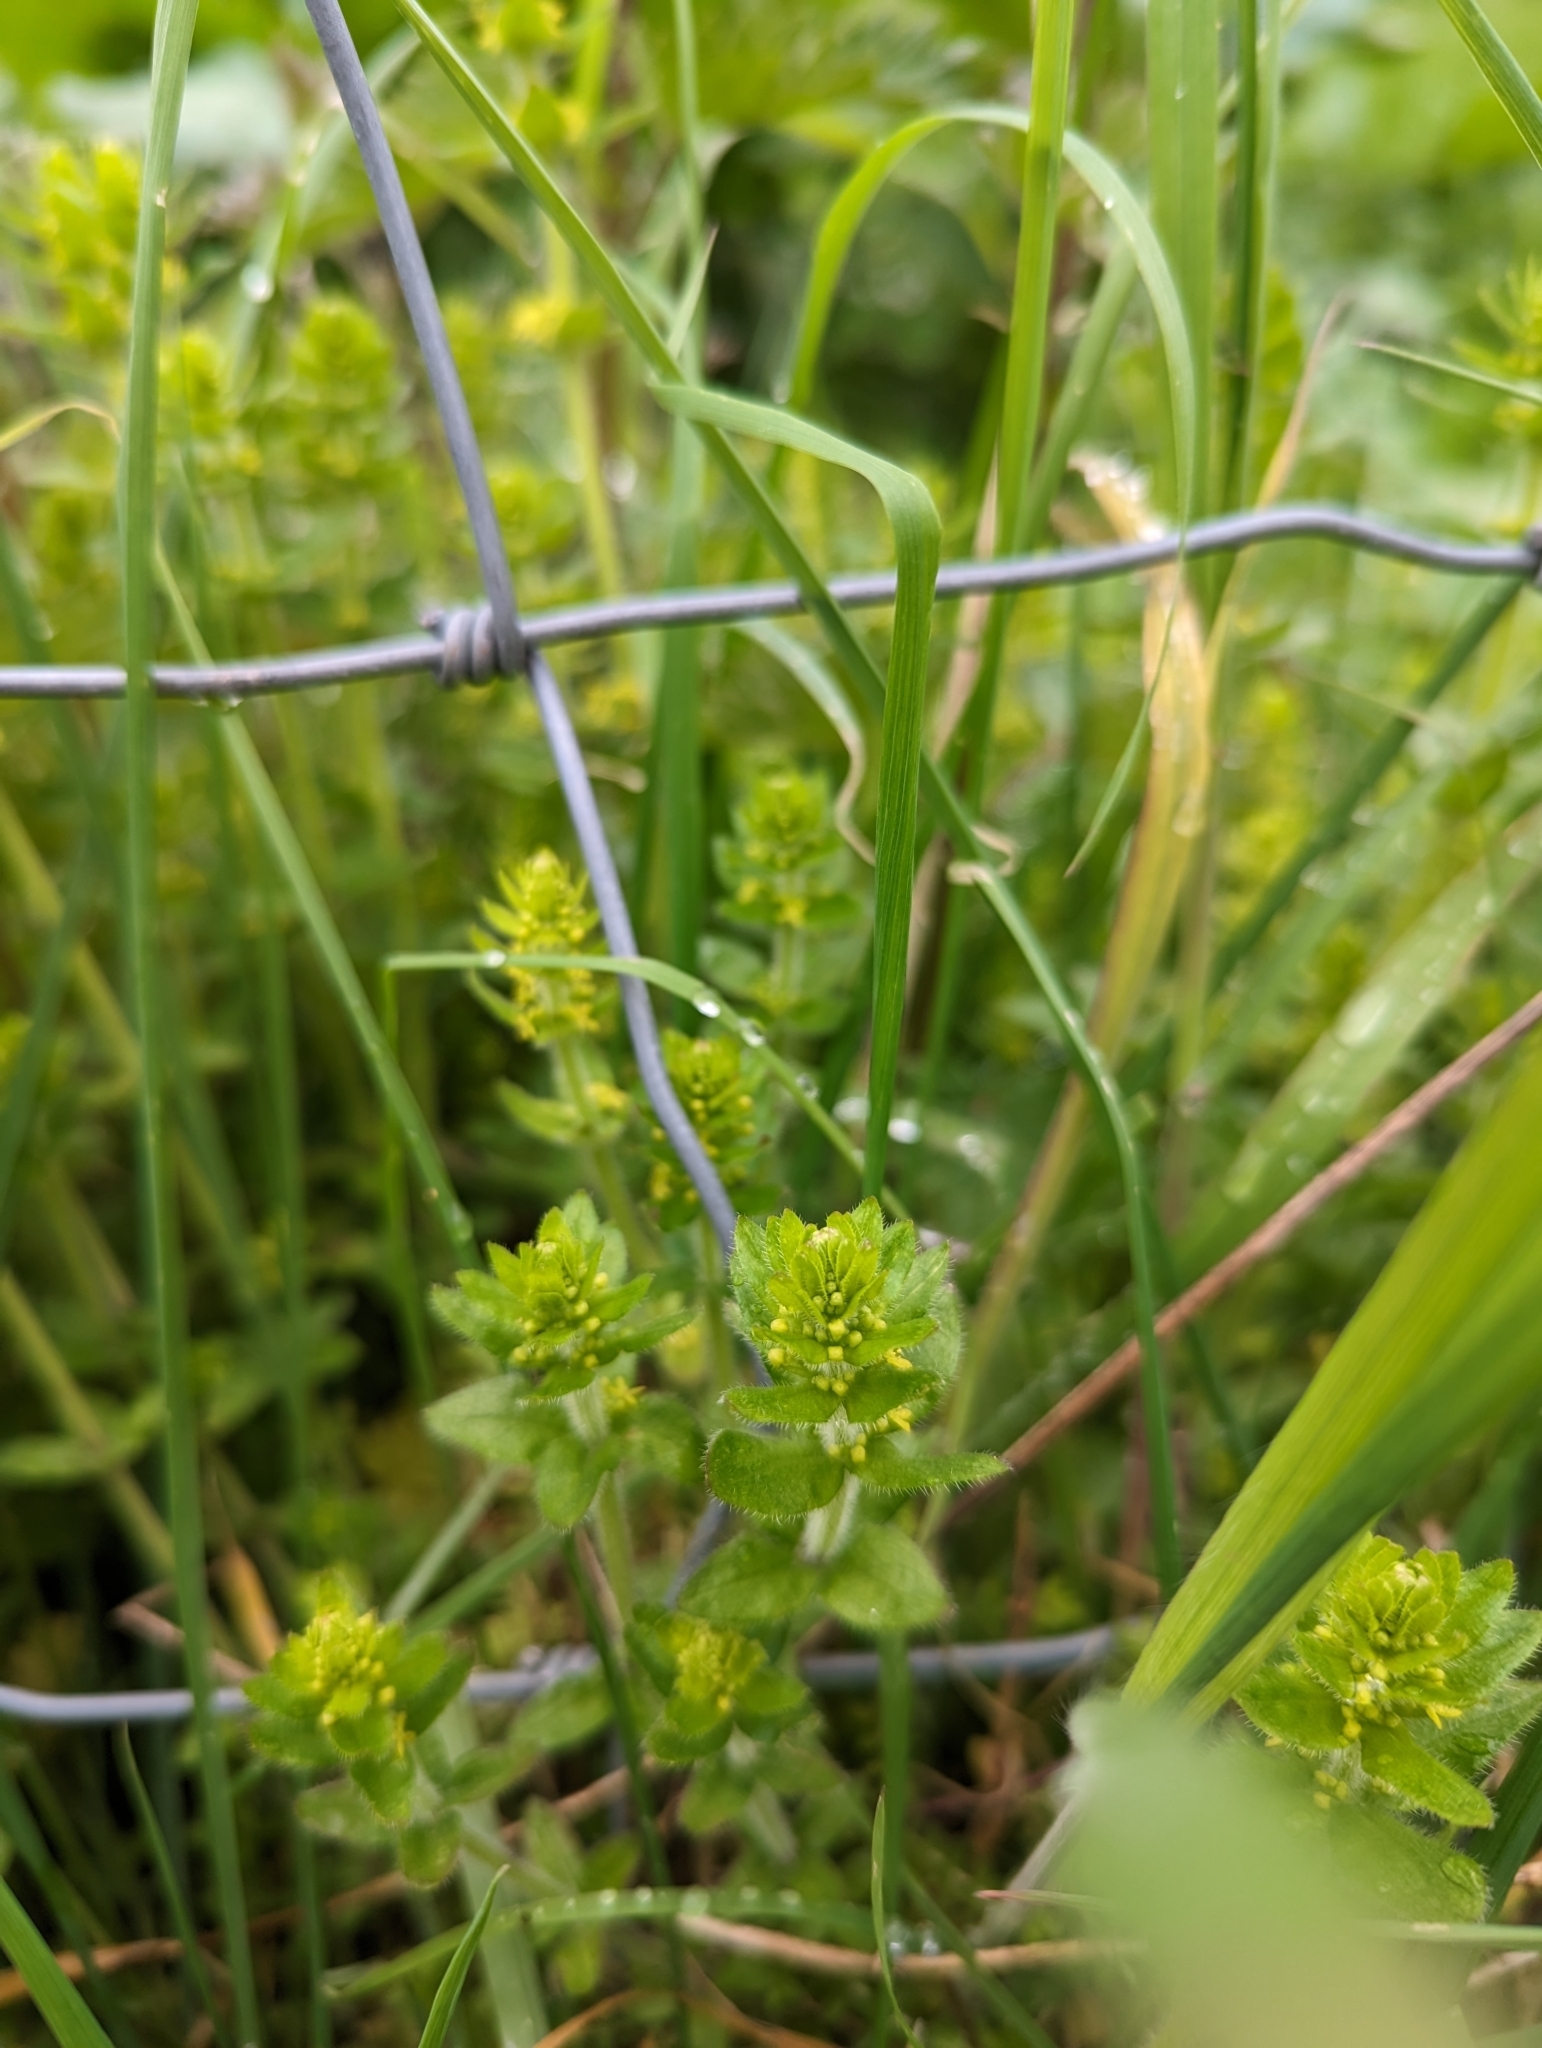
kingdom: Plantae
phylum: Tracheophyta
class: Magnoliopsida
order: Gentianales
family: Rubiaceae
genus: Cruciata
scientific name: Cruciata laevipes
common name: Crosswort
